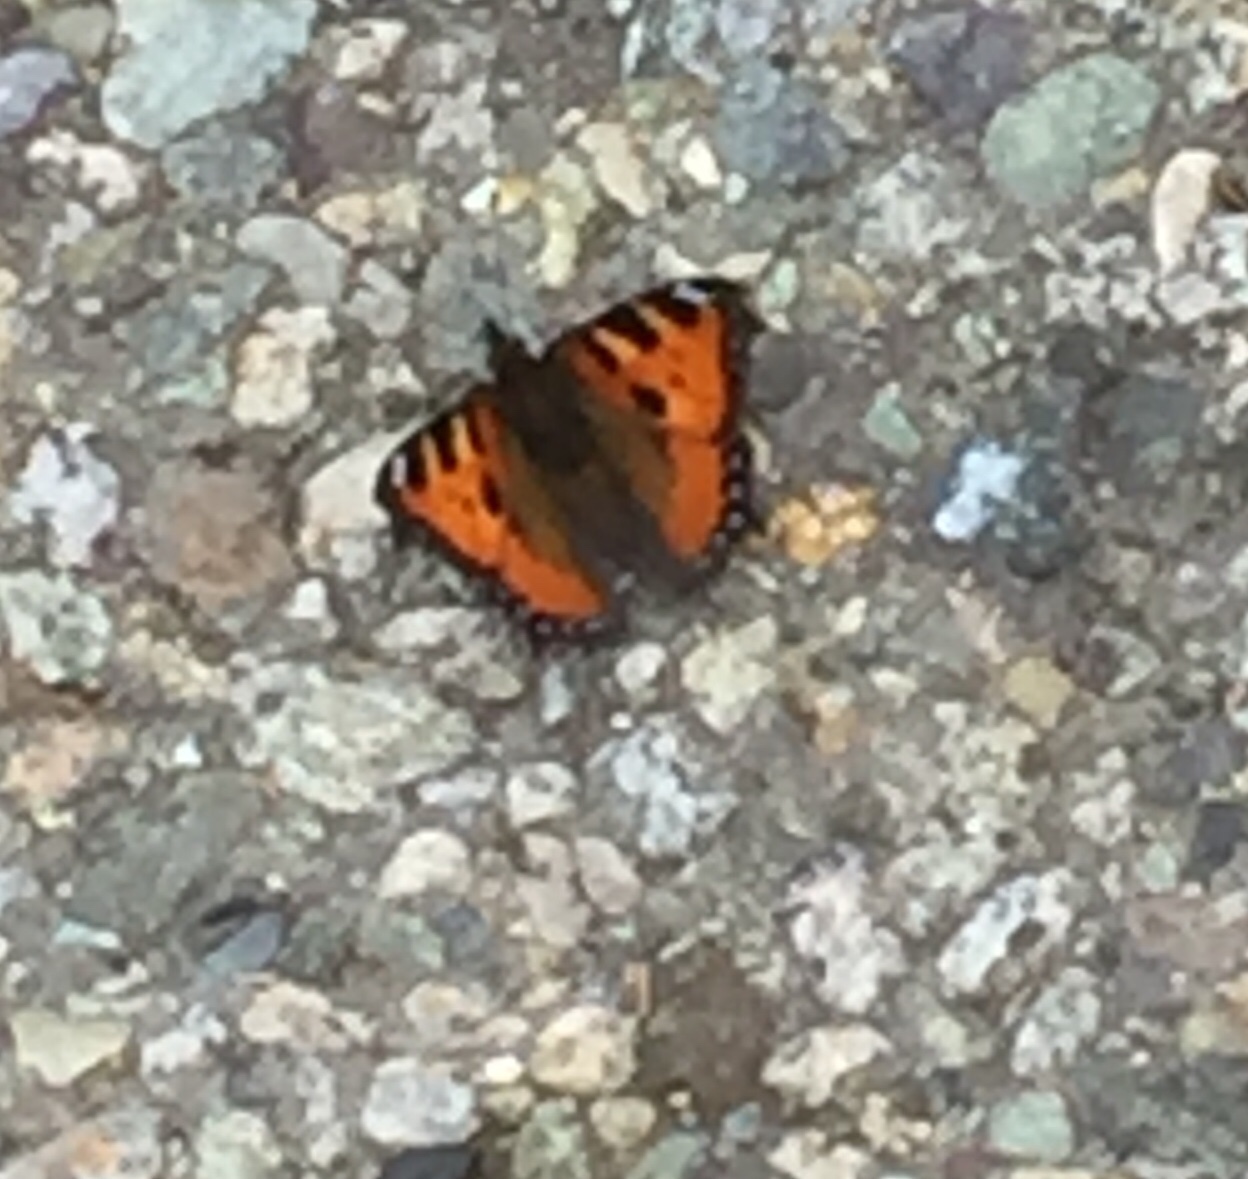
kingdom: Animalia
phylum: Arthropoda
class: Insecta
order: Lepidoptera
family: Nymphalidae
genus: Aglais
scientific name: Aglais urticae
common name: Small tortoiseshell
